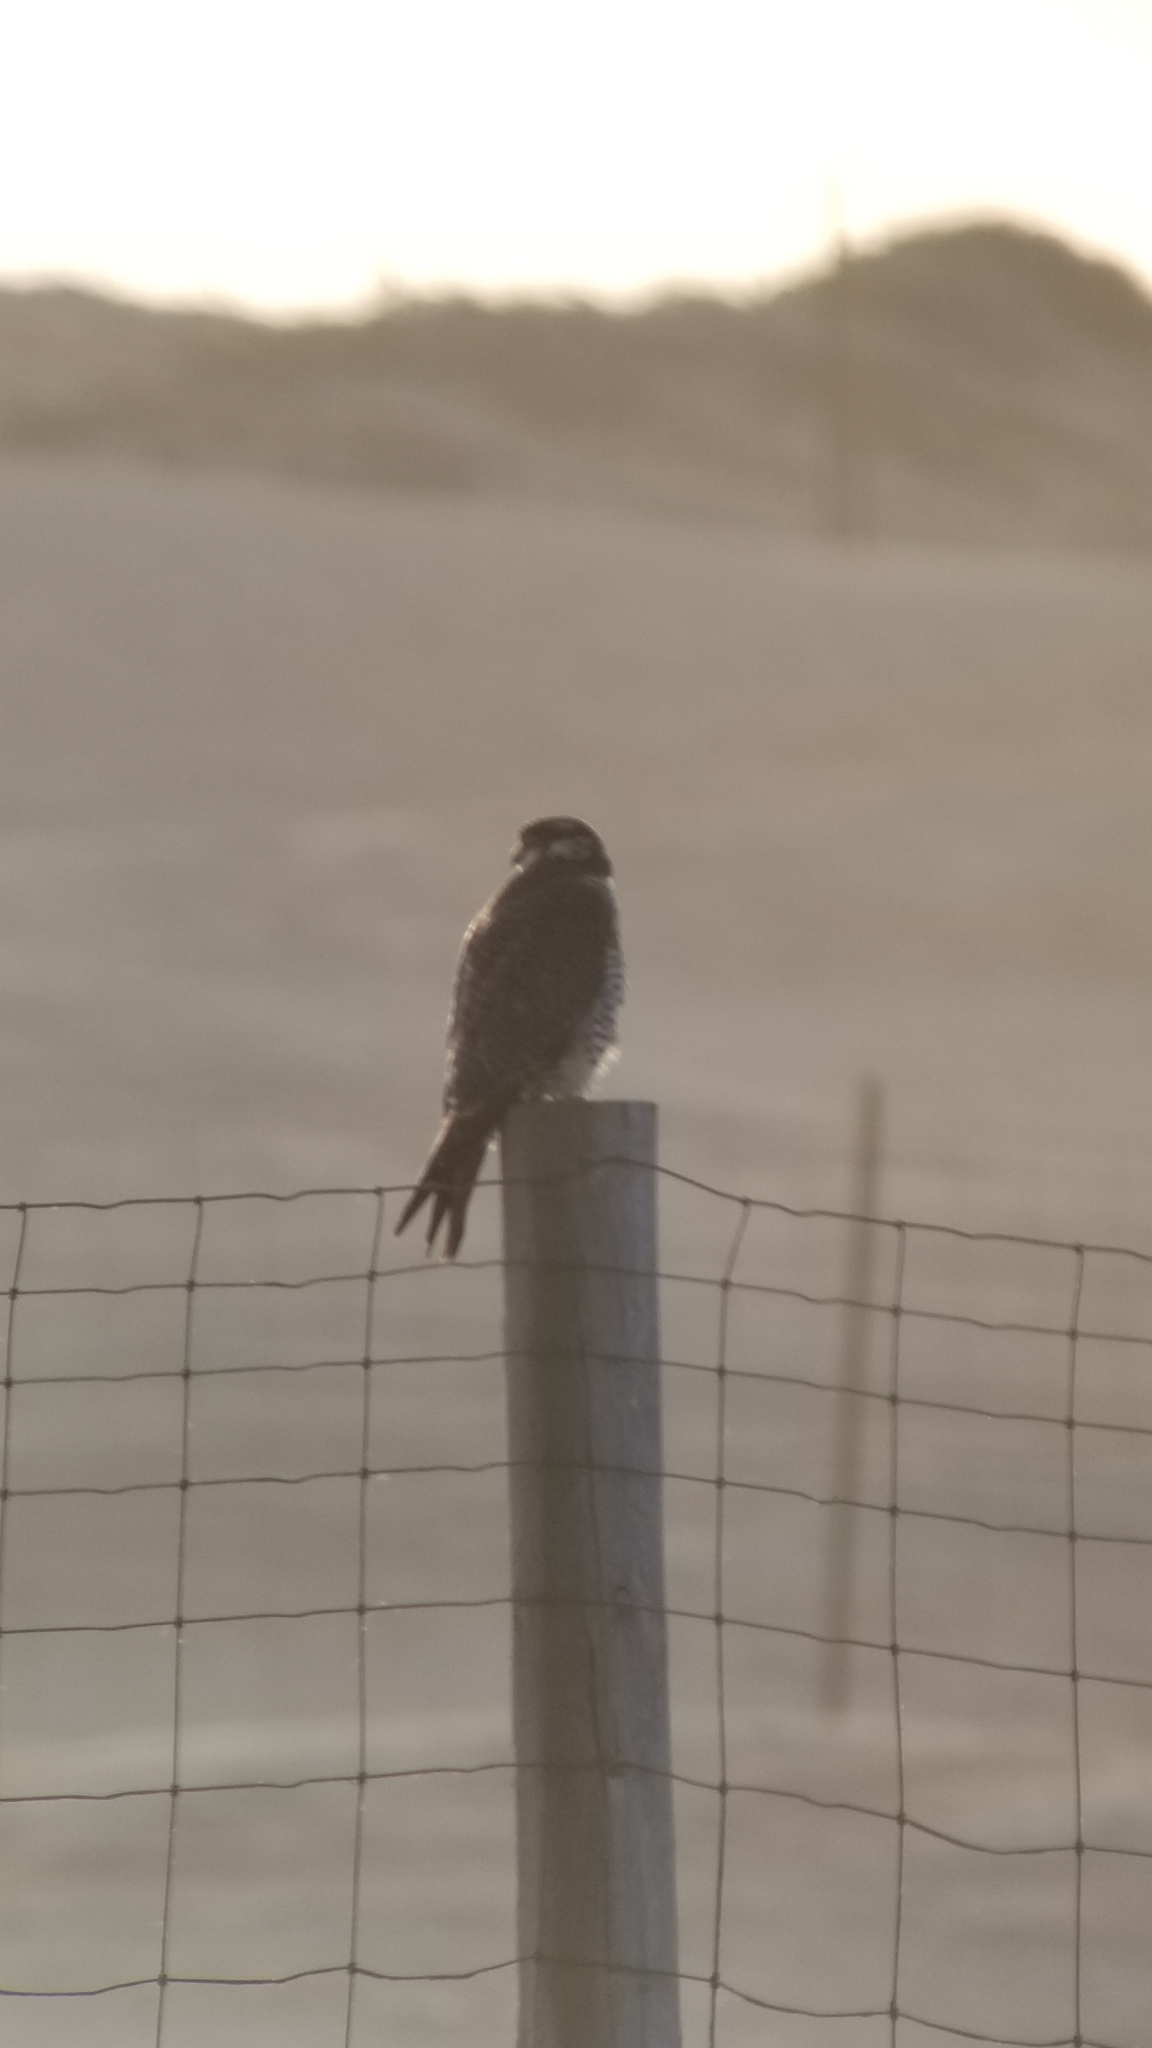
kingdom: Animalia
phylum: Chordata
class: Aves
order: Falconiformes
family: Falconidae
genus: Falco
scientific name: Falco peregrinus
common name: Peregrine falcon
